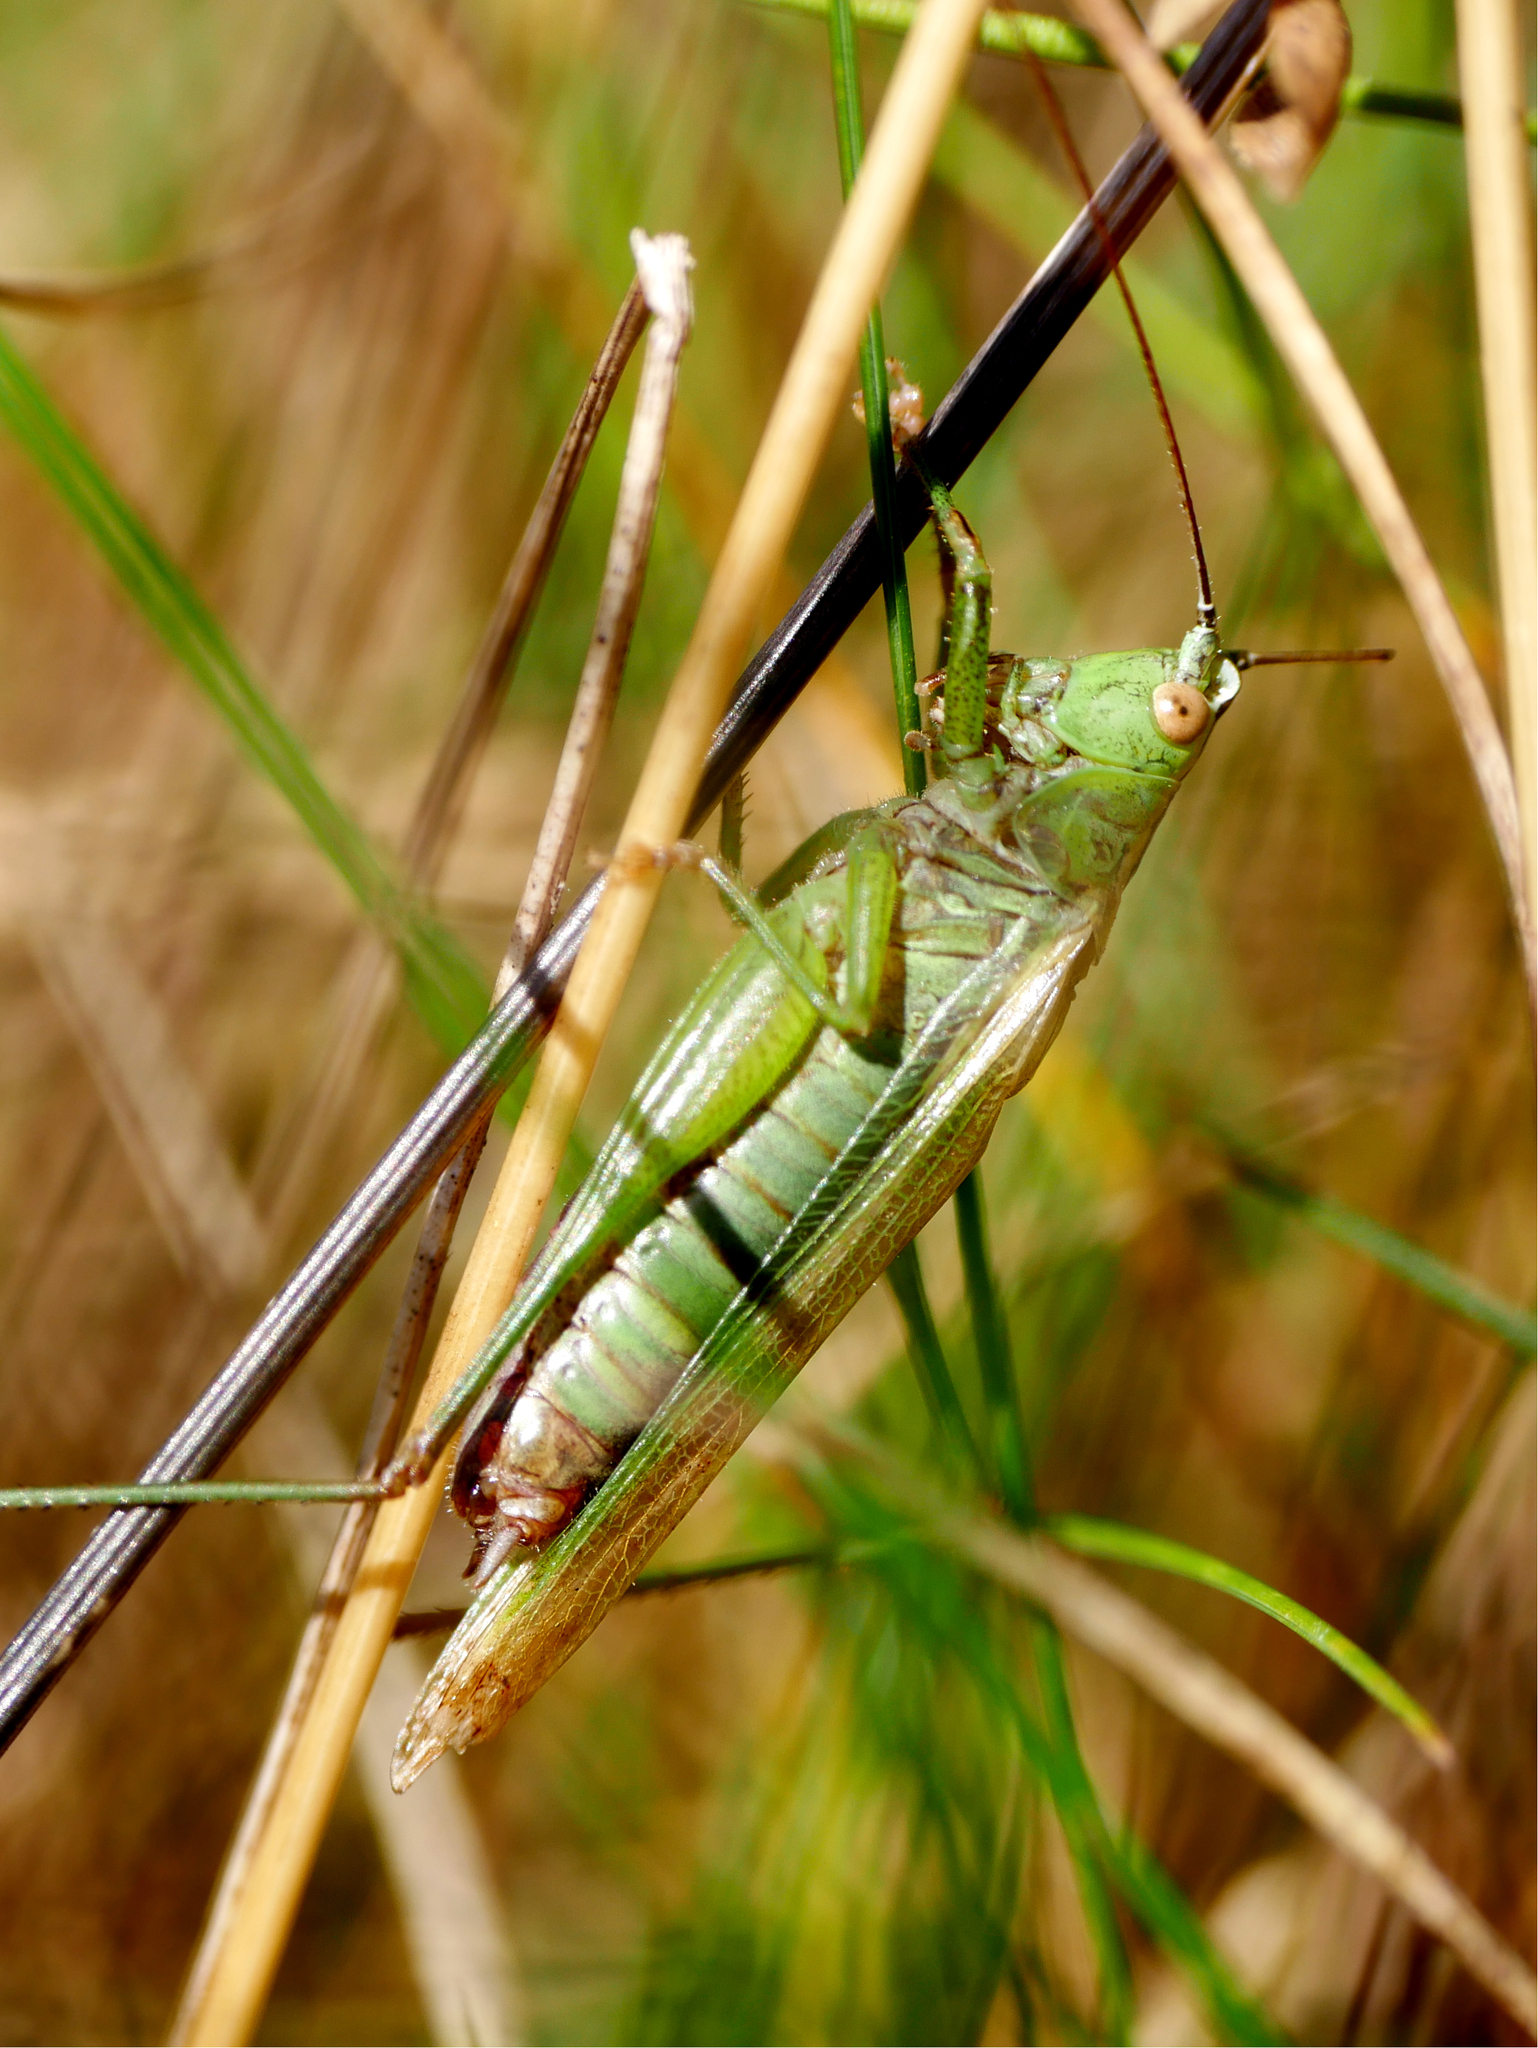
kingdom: Animalia
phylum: Arthropoda
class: Insecta
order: Orthoptera
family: Tettigoniidae
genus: Conocephalus
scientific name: Conocephalus fuscus
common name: Long-winged conehead
